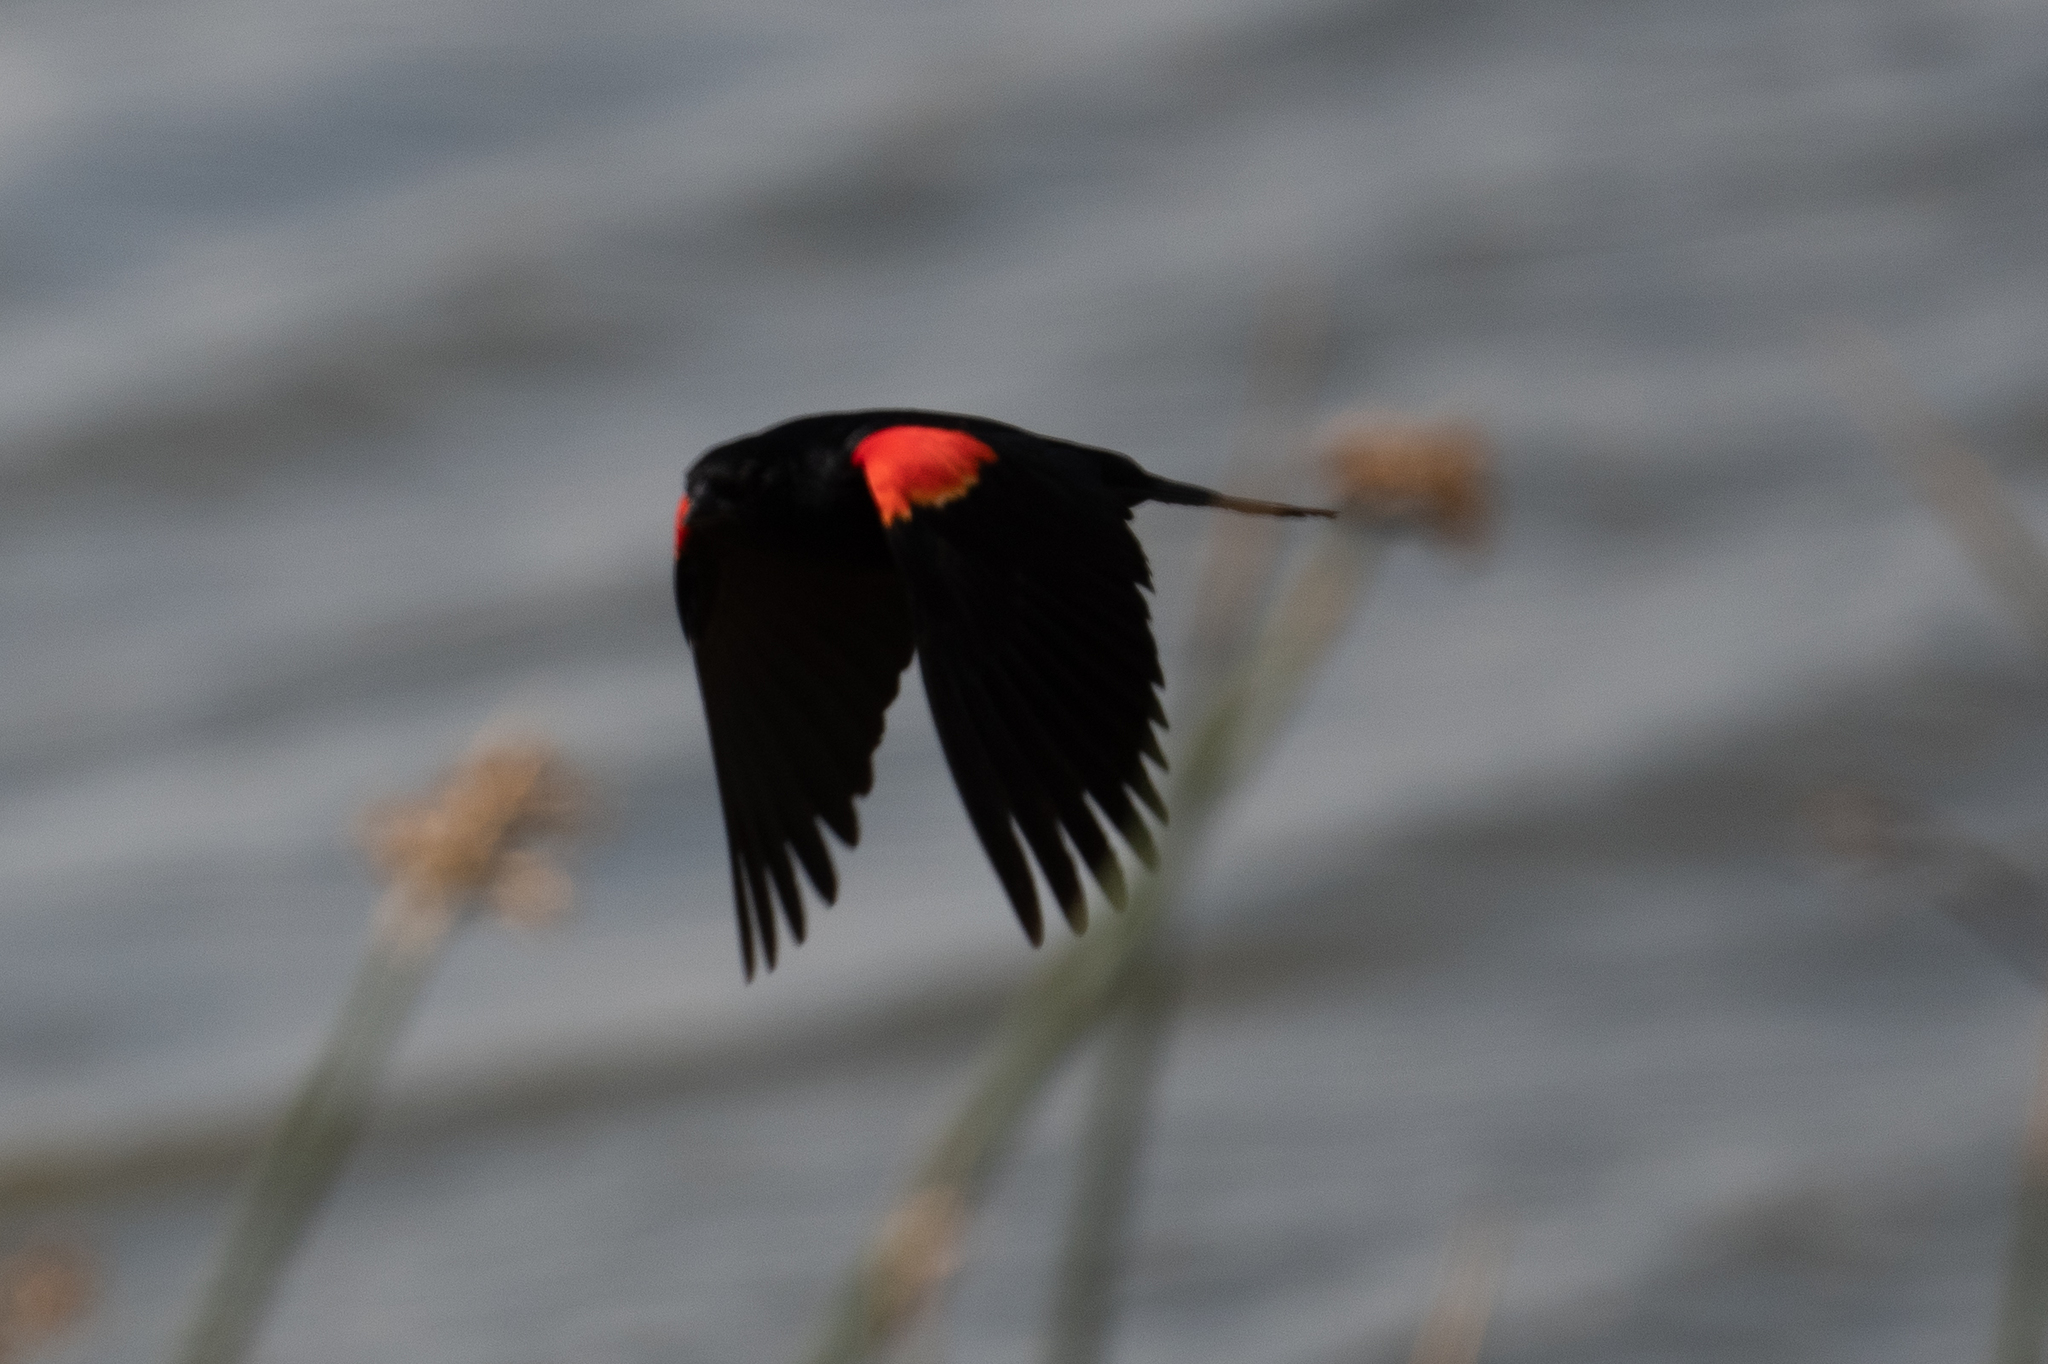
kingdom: Animalia
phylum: Chordata
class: Aves
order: Passeriformes
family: Icteridae
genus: Agelaius
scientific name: Agelaius phoeniceus
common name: Red-winged blackbird
